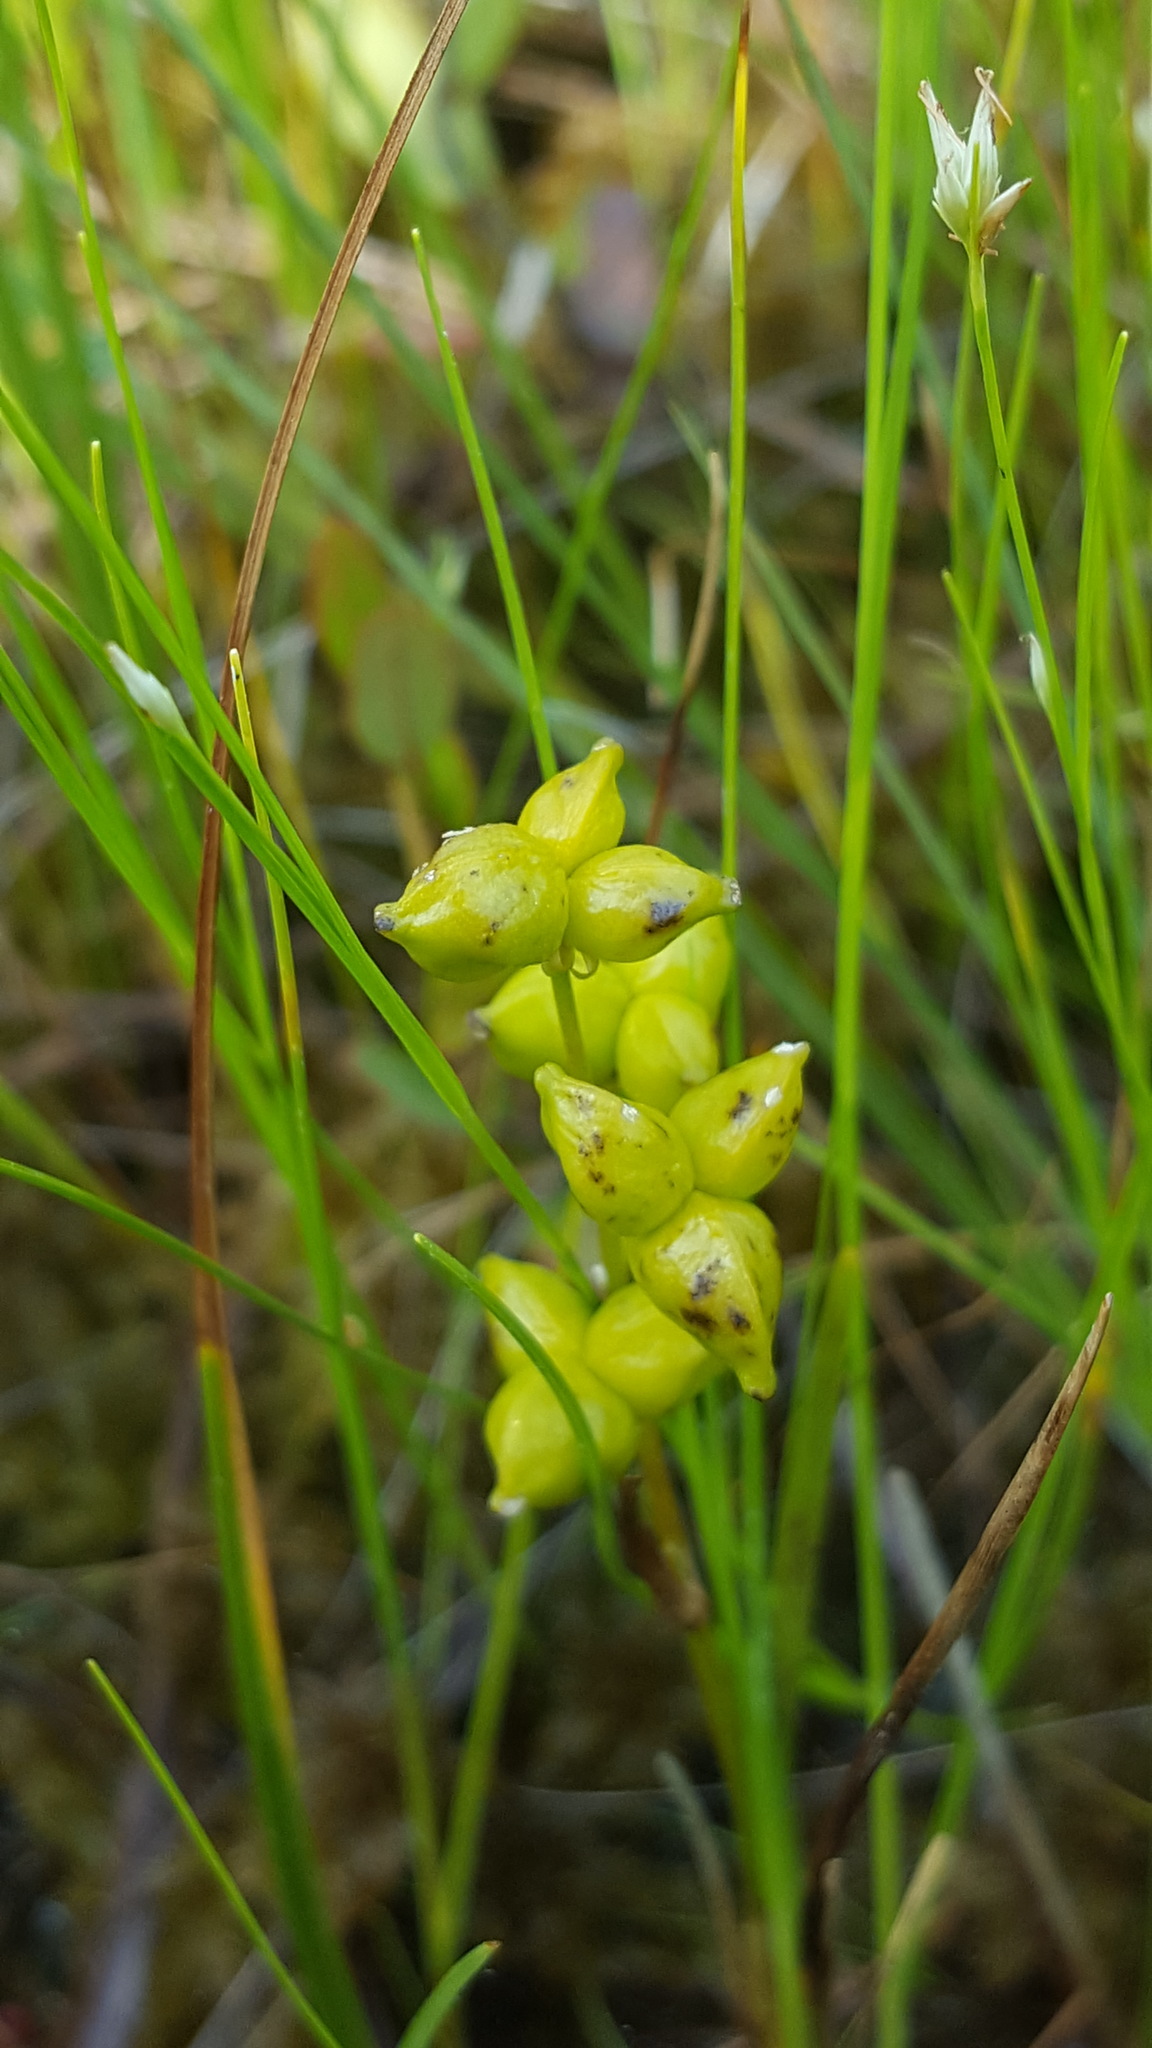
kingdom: Plantae
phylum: Tracheophyta
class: Liliopsida
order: Alismatales
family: Scheuchzeriaceae
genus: Scheuchzeria
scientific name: Scheuchzeria palustris
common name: Rannoch-rush
